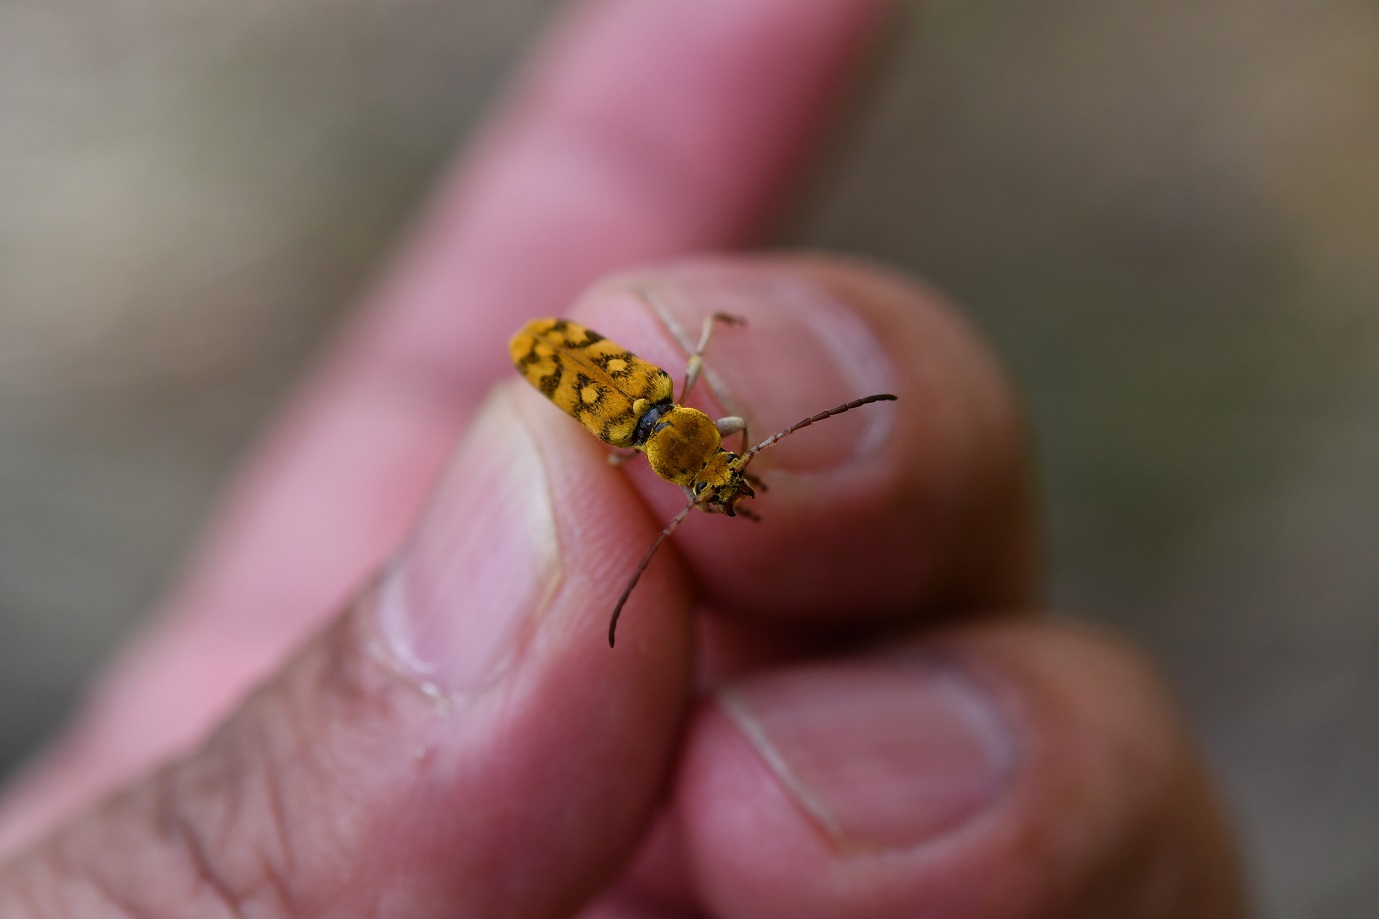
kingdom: Animalia
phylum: Arthropoda
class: Insecta
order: Coleoptera
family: Cerambycidae
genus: Ochraethes
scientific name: Ochraethes confusus
